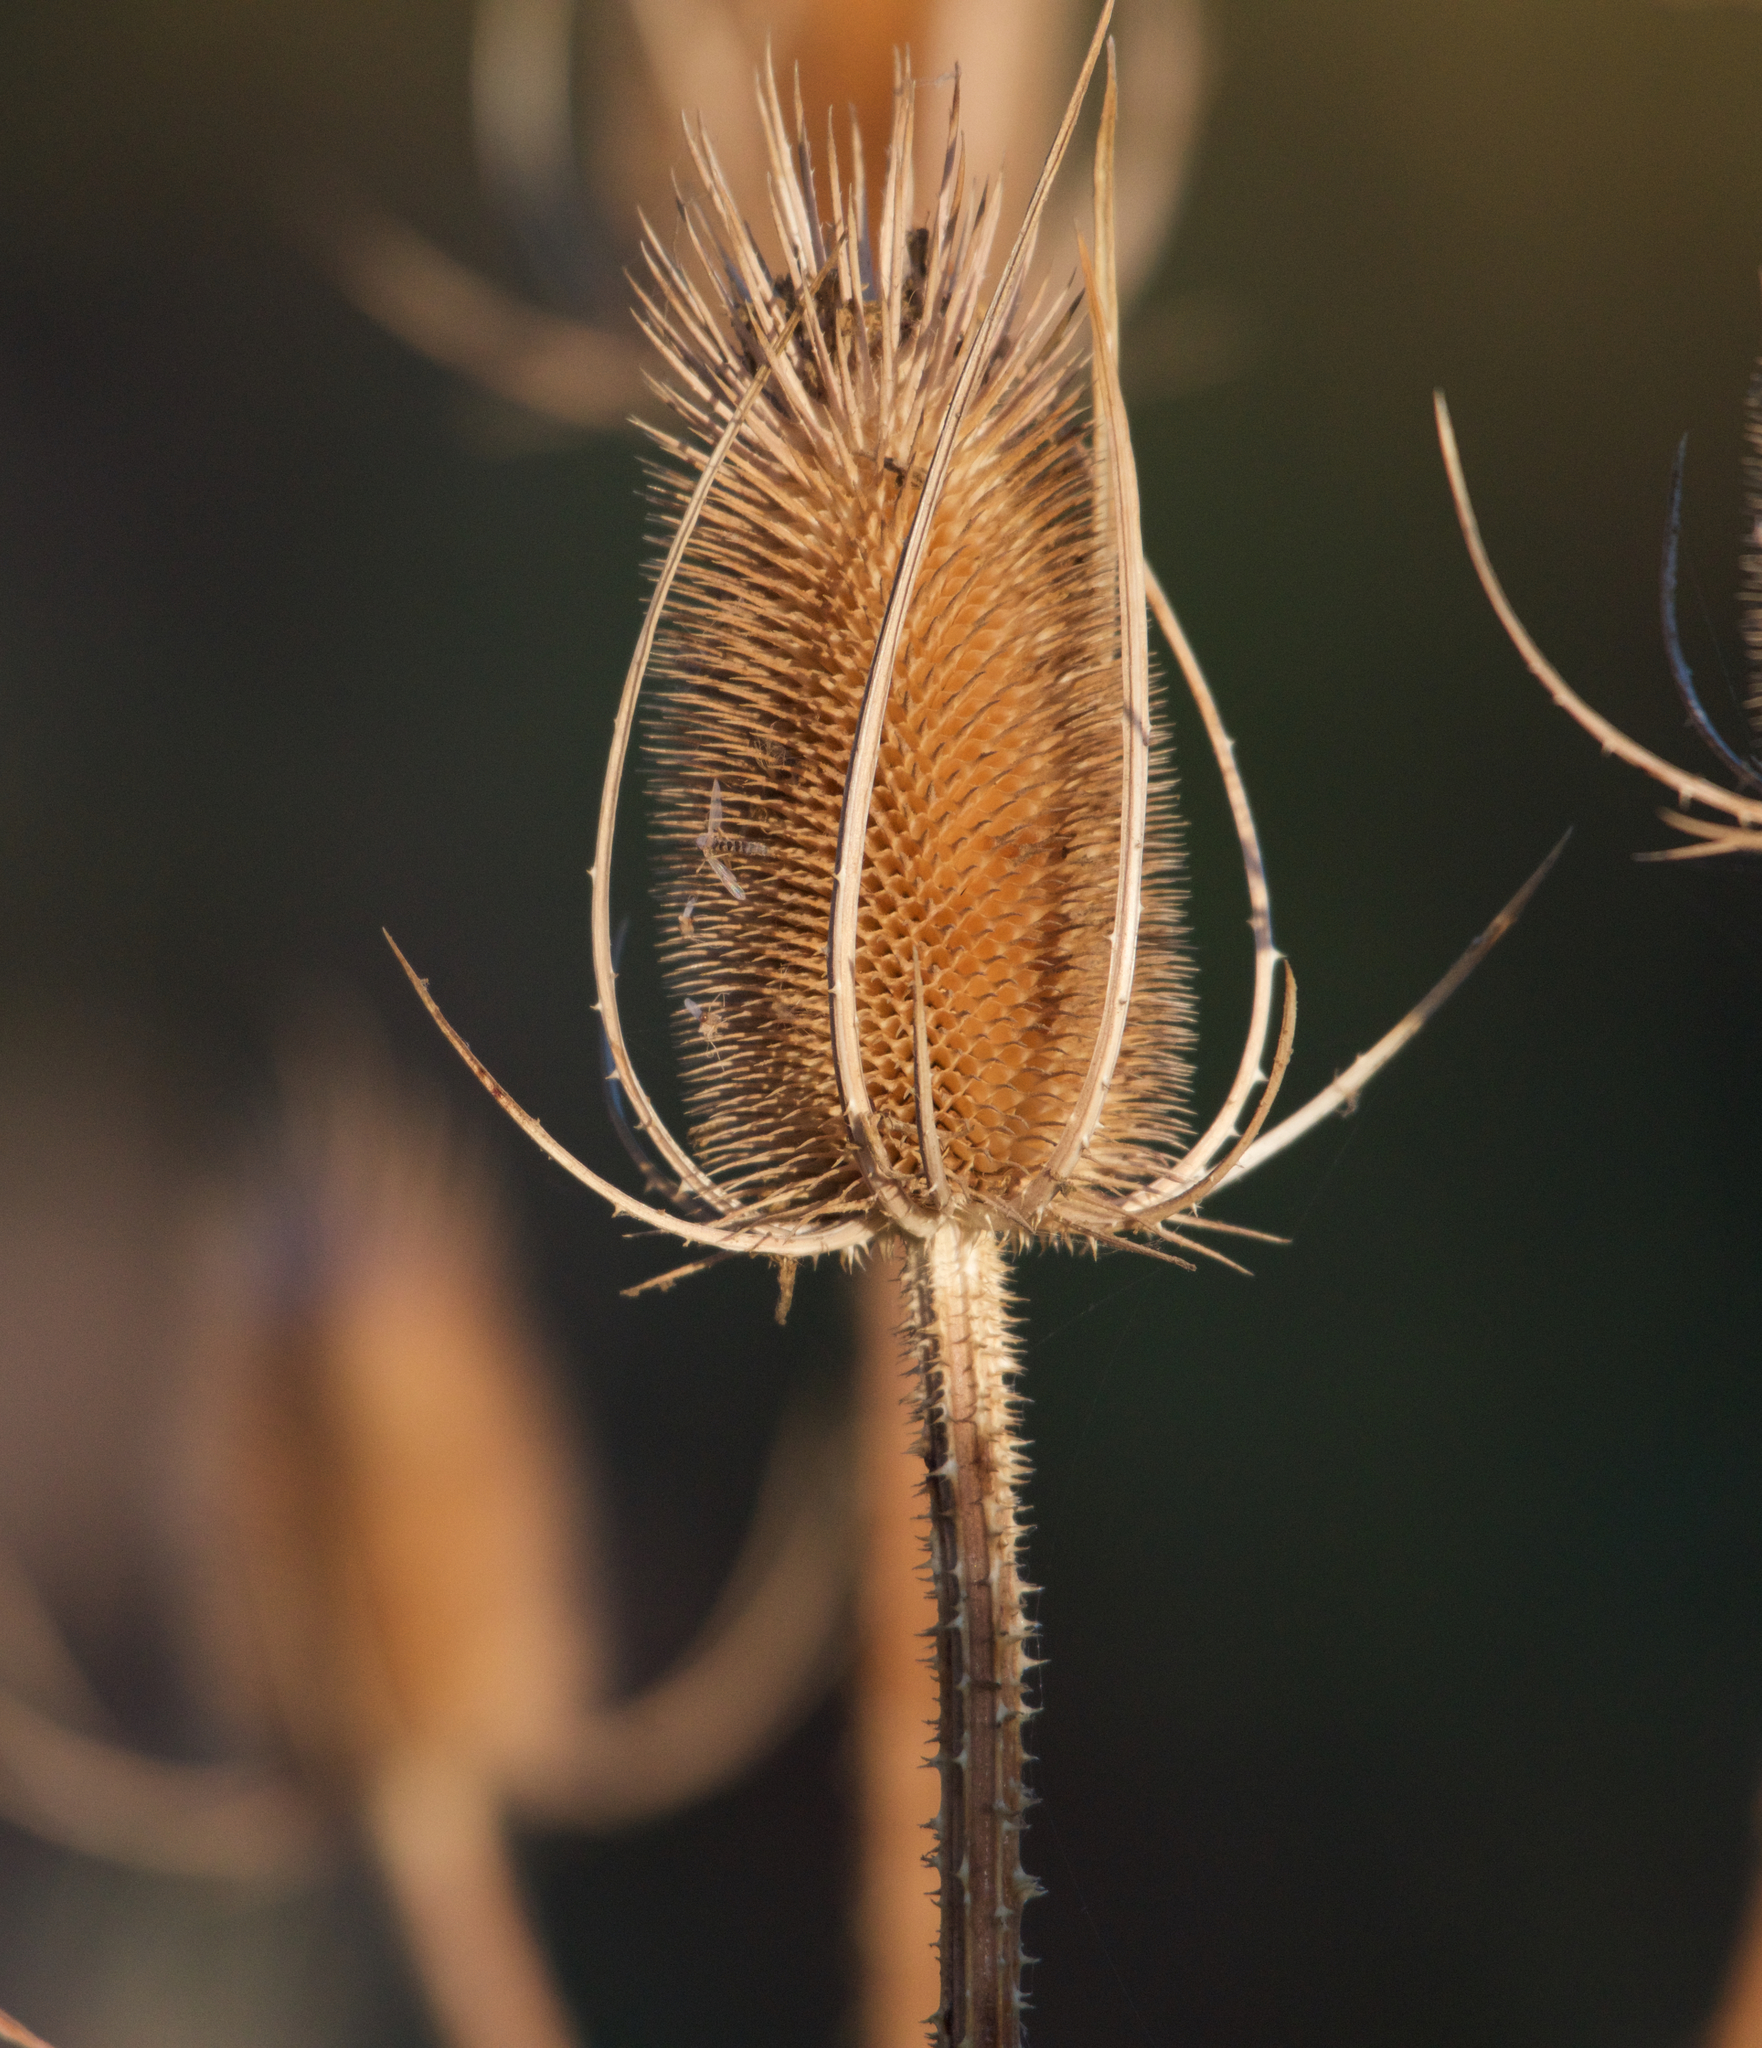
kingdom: Plantae
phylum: Tracheophyta
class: Magnoliopsida
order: Dipsacales
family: Caprifoliaceae
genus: Dipsacus
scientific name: Dipsacus fullonum
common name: Teasel
